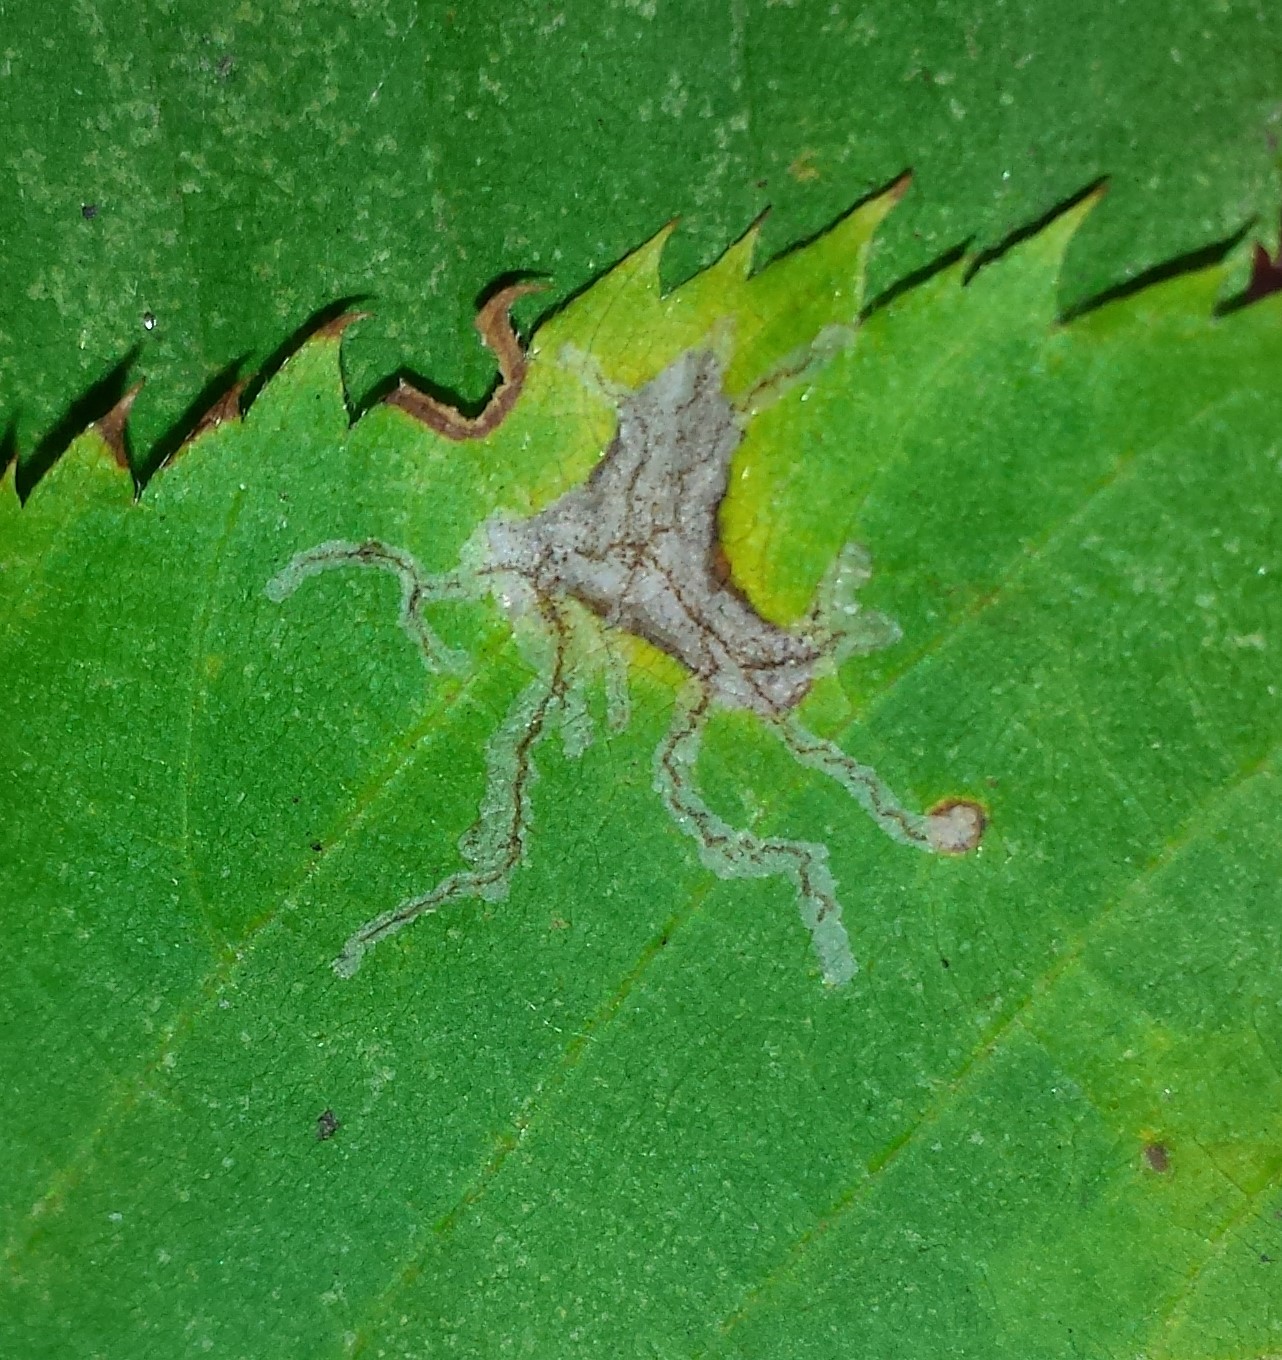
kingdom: Animalia
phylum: Arthropoda
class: Insecta
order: Lepidoptera
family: Gracillariidae
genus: Caloptilia
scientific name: Caloptilia ostryaeella
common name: Ironwood leafcone moth
